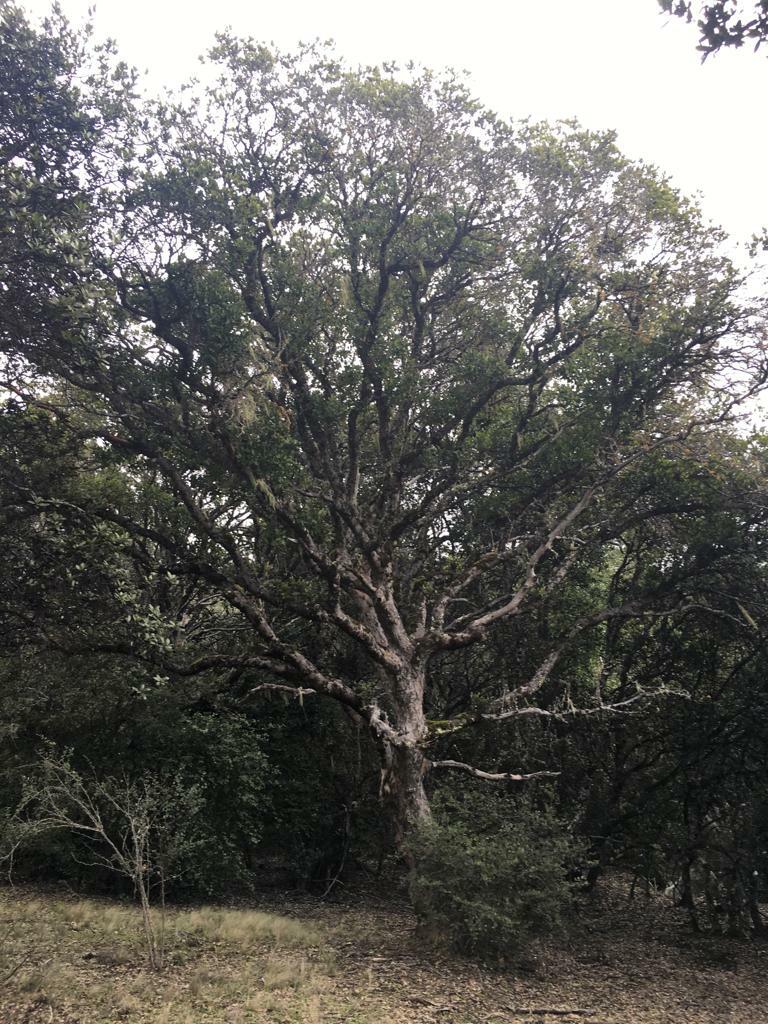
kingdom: Plantae
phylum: Tracheophyta
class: Magnoliopsida
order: Sapindales
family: Anacardiaceae
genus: Lithraea
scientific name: Lithraea caustica
